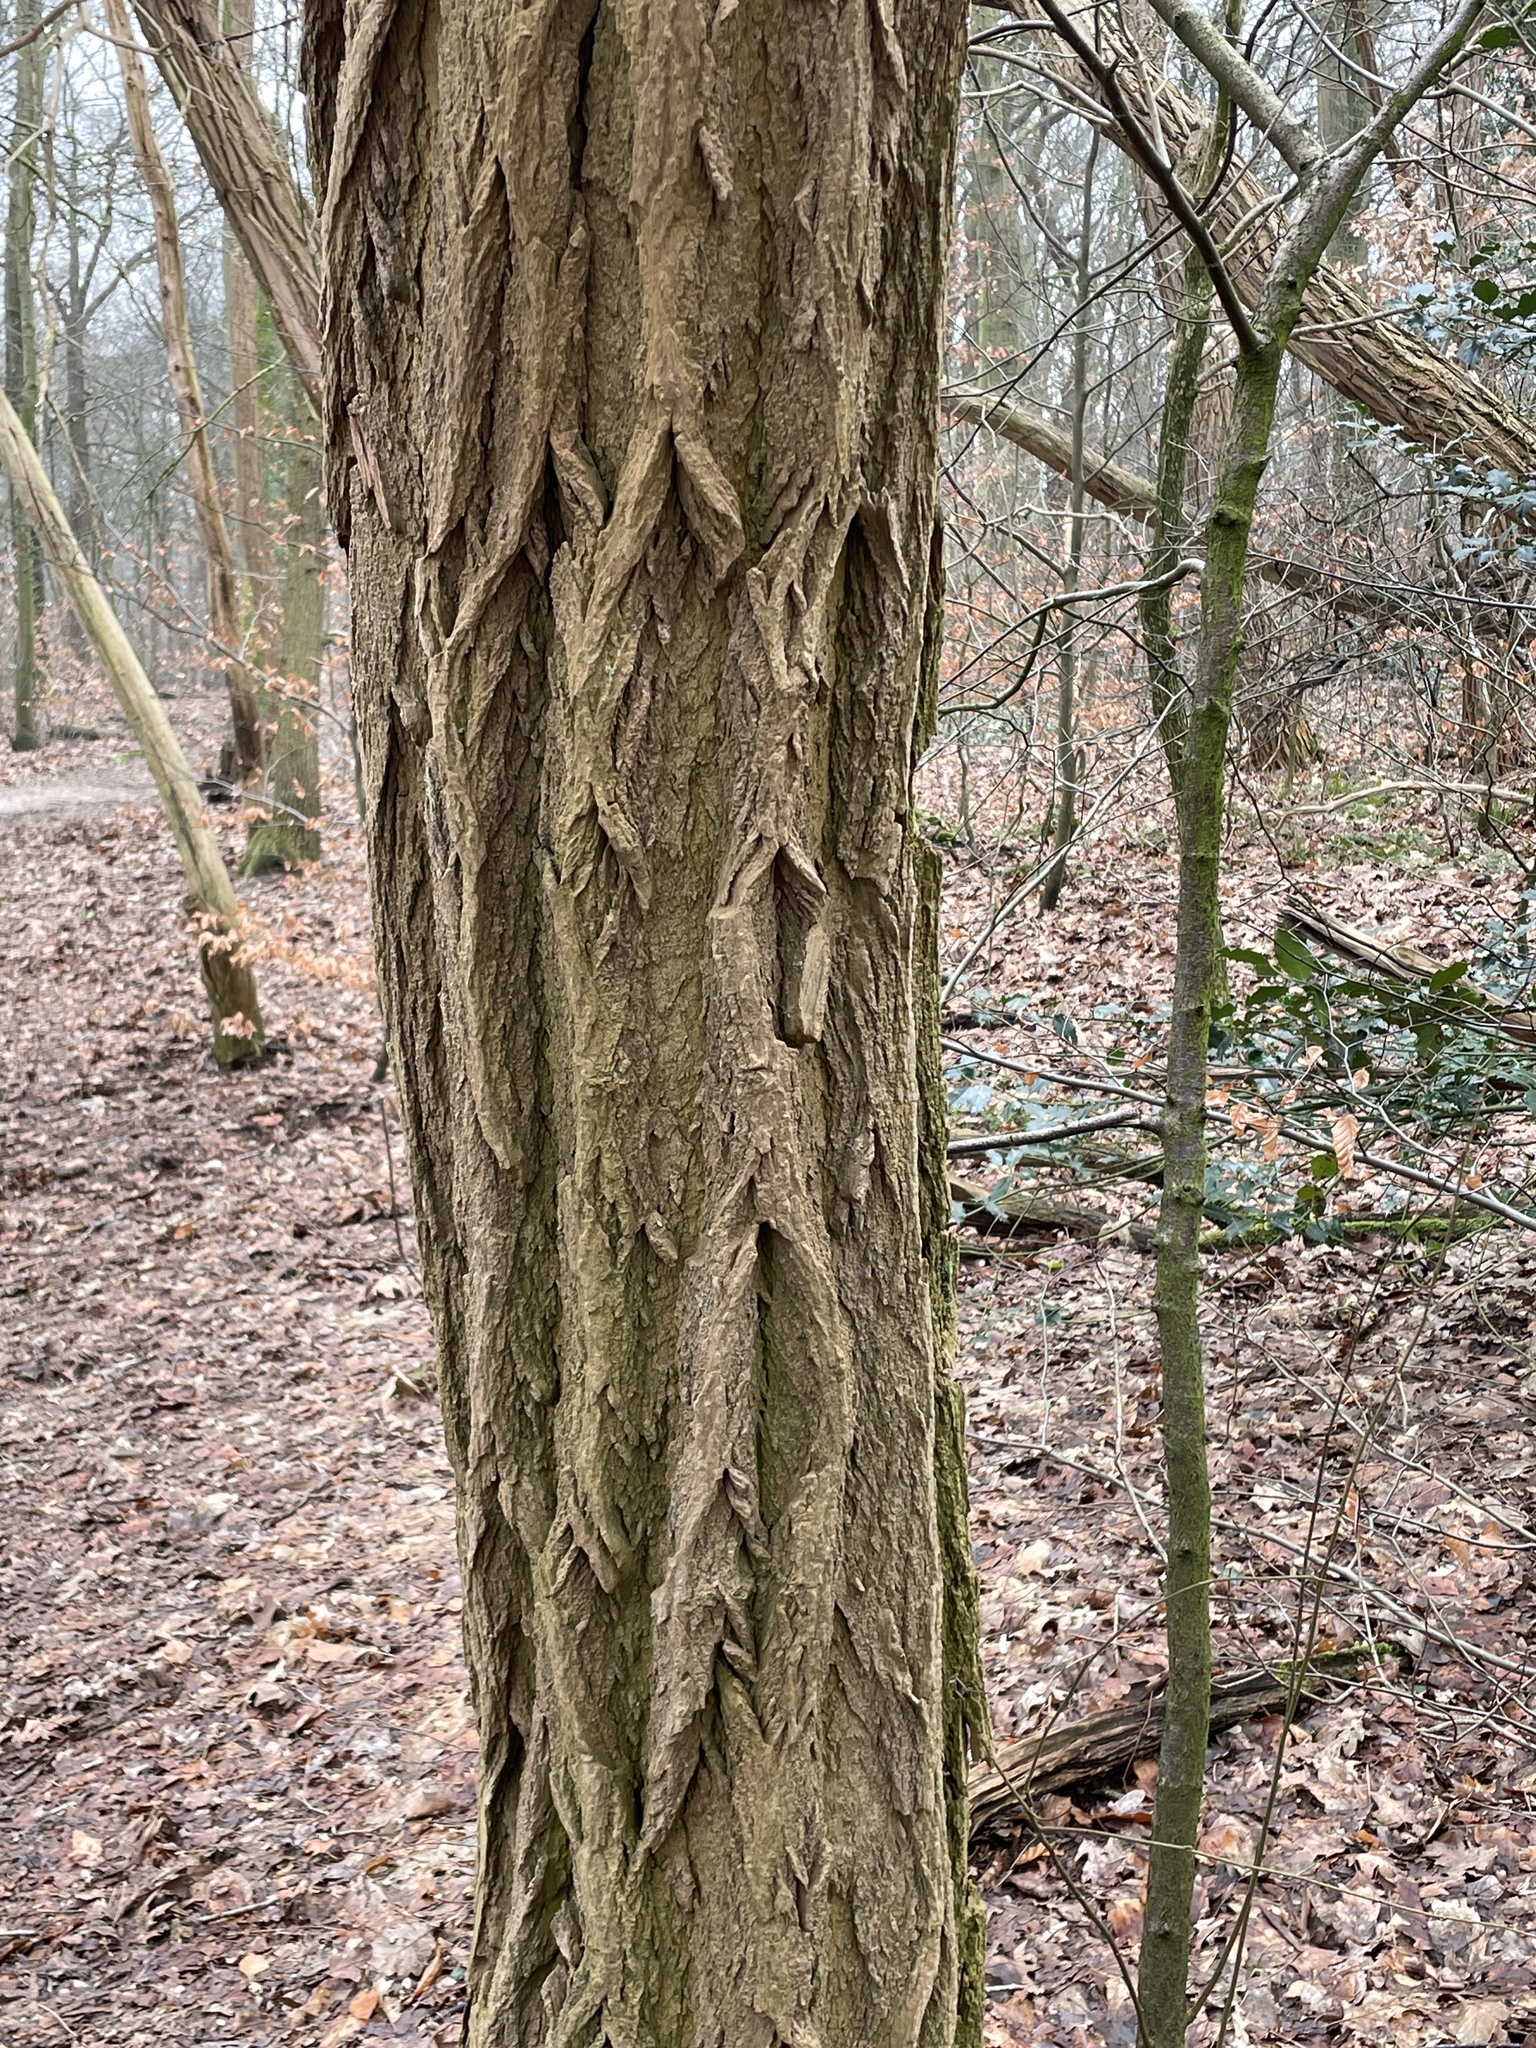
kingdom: Plantae
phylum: Tracheophyta
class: Magnoliopsida
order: Fabales
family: Fabaceae
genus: Robinia
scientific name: Robinia pseudoacacia
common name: Black locust
